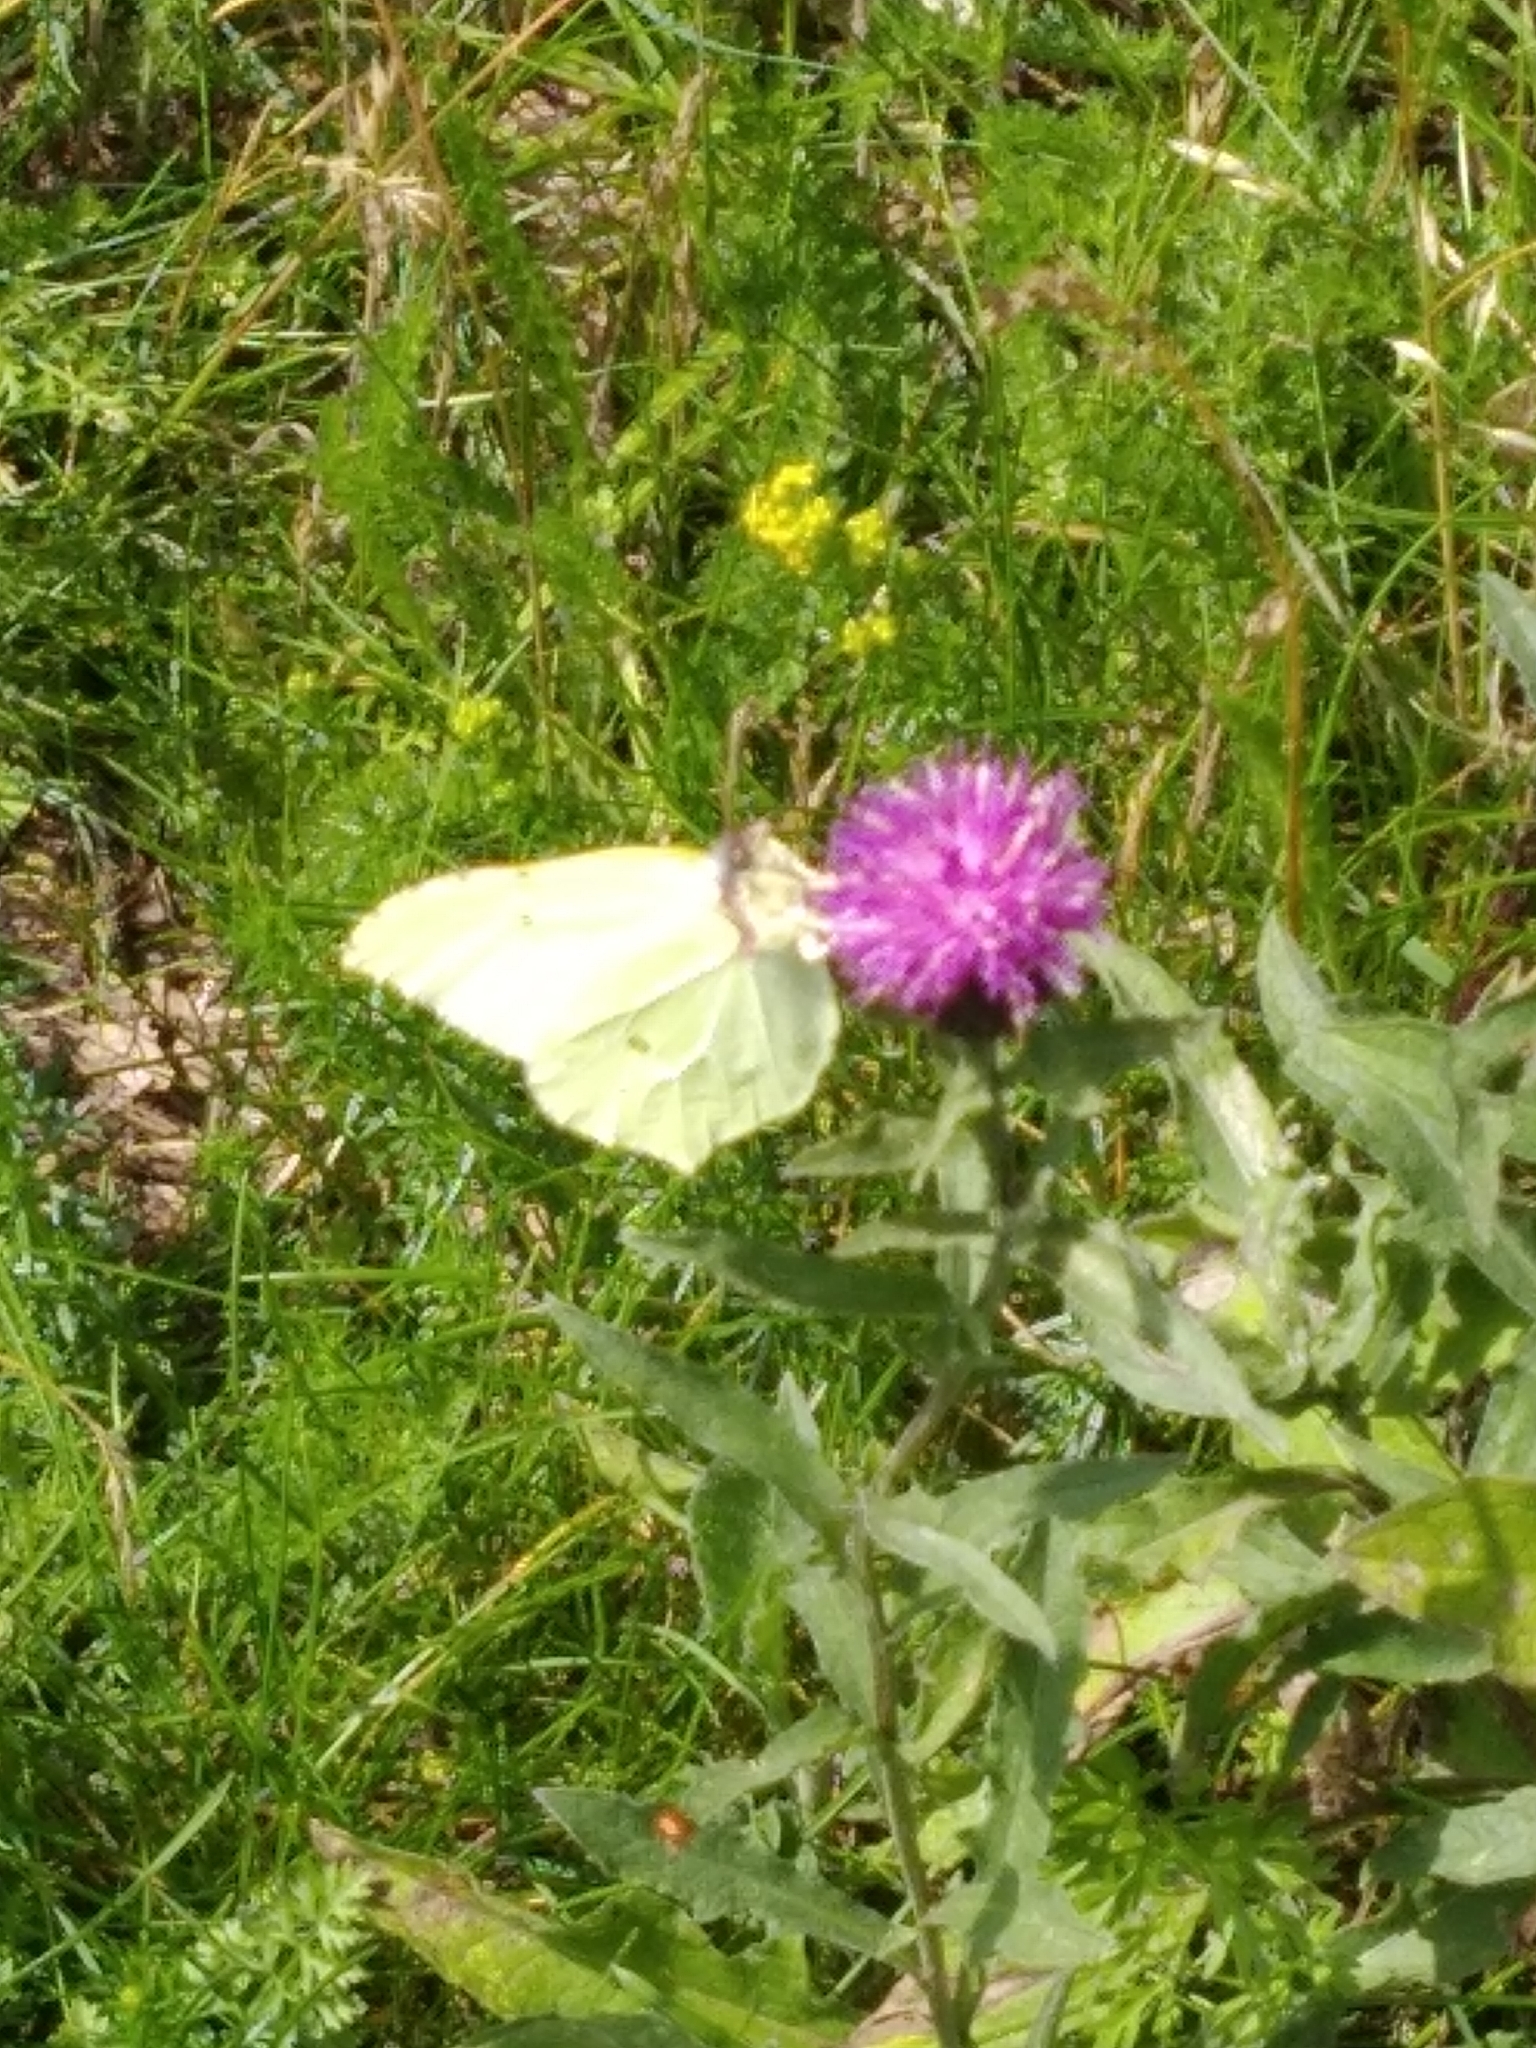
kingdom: Animalia
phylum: Arthropoda
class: Insecta
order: Lepidoptera
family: Pieridae
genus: Gonepteryx
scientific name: Gonepteryx rhamni
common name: Brimstone
